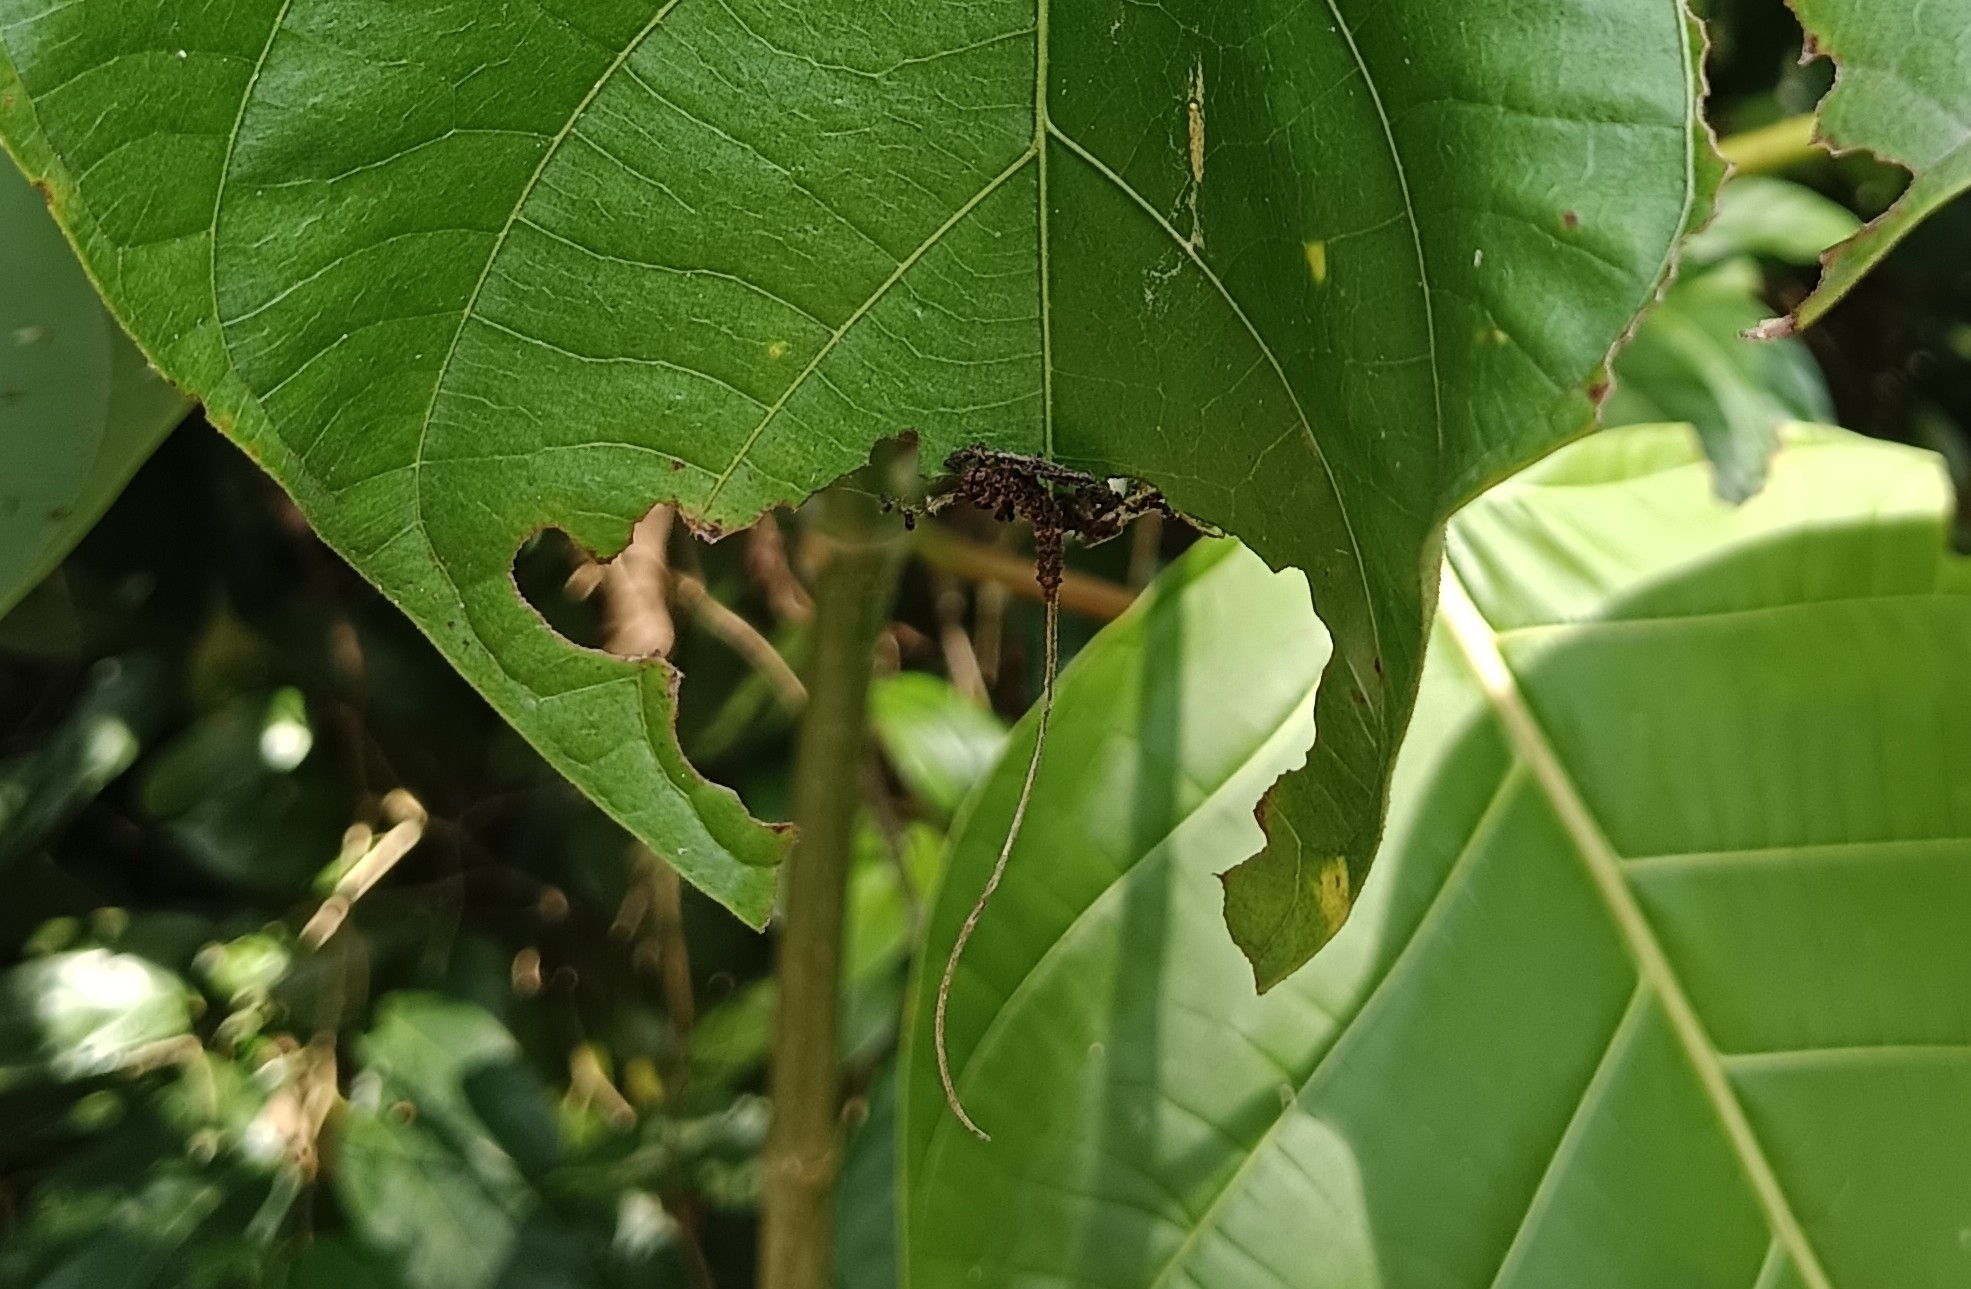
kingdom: Animalia
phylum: Arthropoda
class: Insecta
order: Lepidoptera
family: Nymphalidae
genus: Limenitis
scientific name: Limenitis Moduza procris
